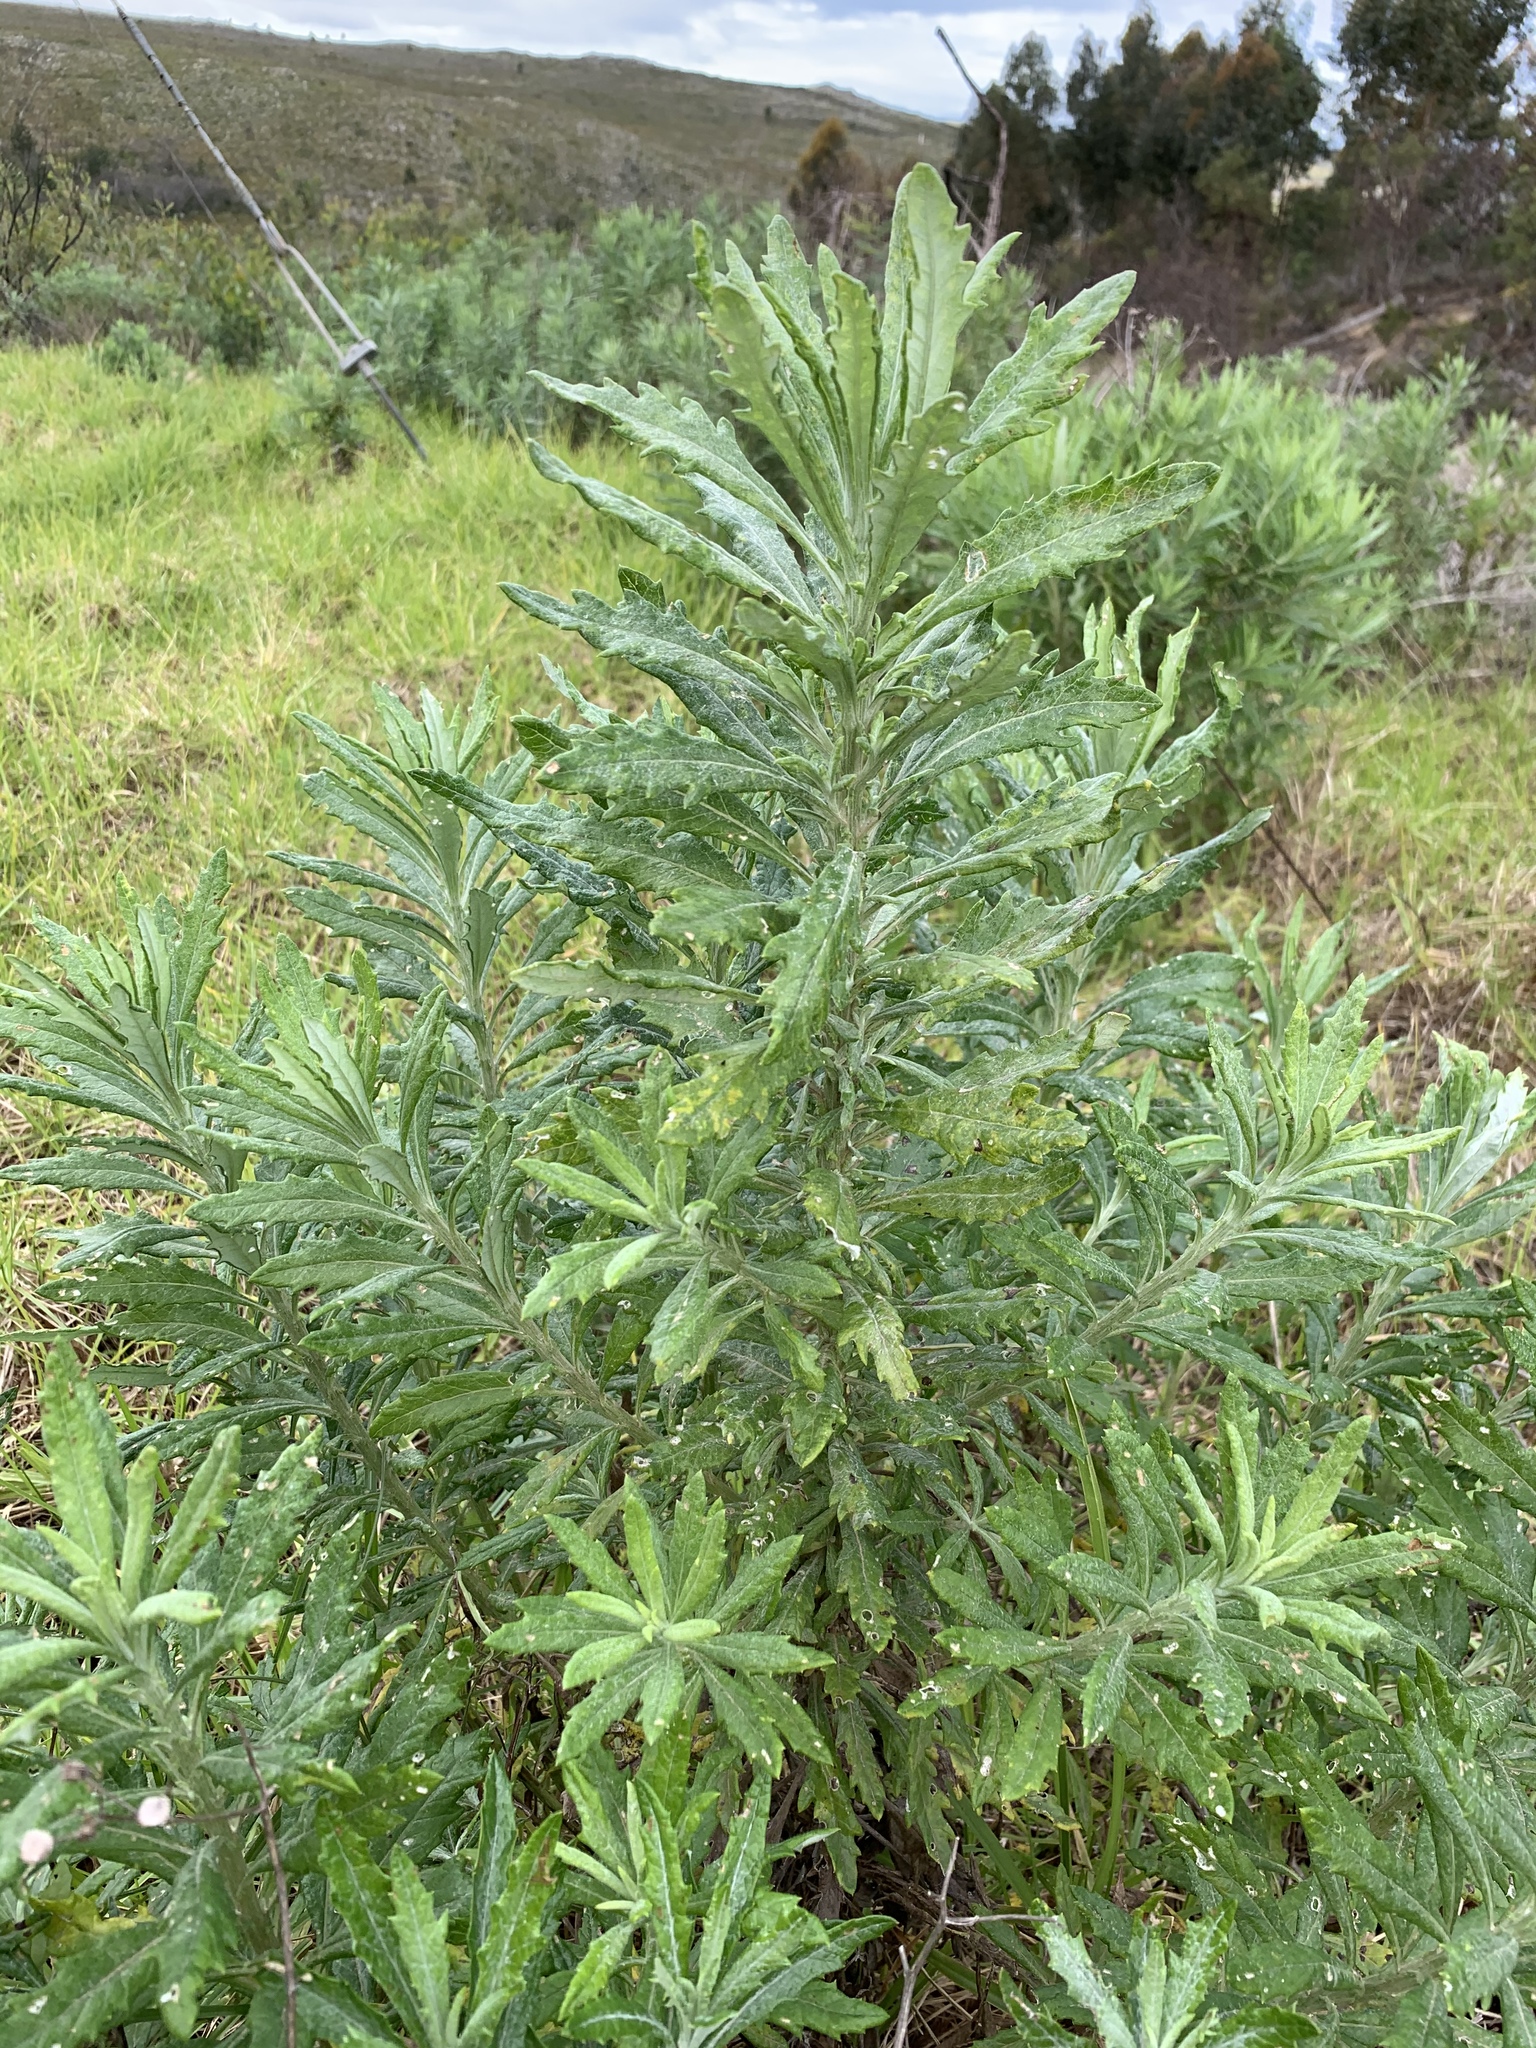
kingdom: Plantae
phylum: Tracheophyta
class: Magnoliopsida
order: Asterales
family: Asteraceae
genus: Senecio
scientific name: Senecio pterophorus
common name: Shoddy ragwort
